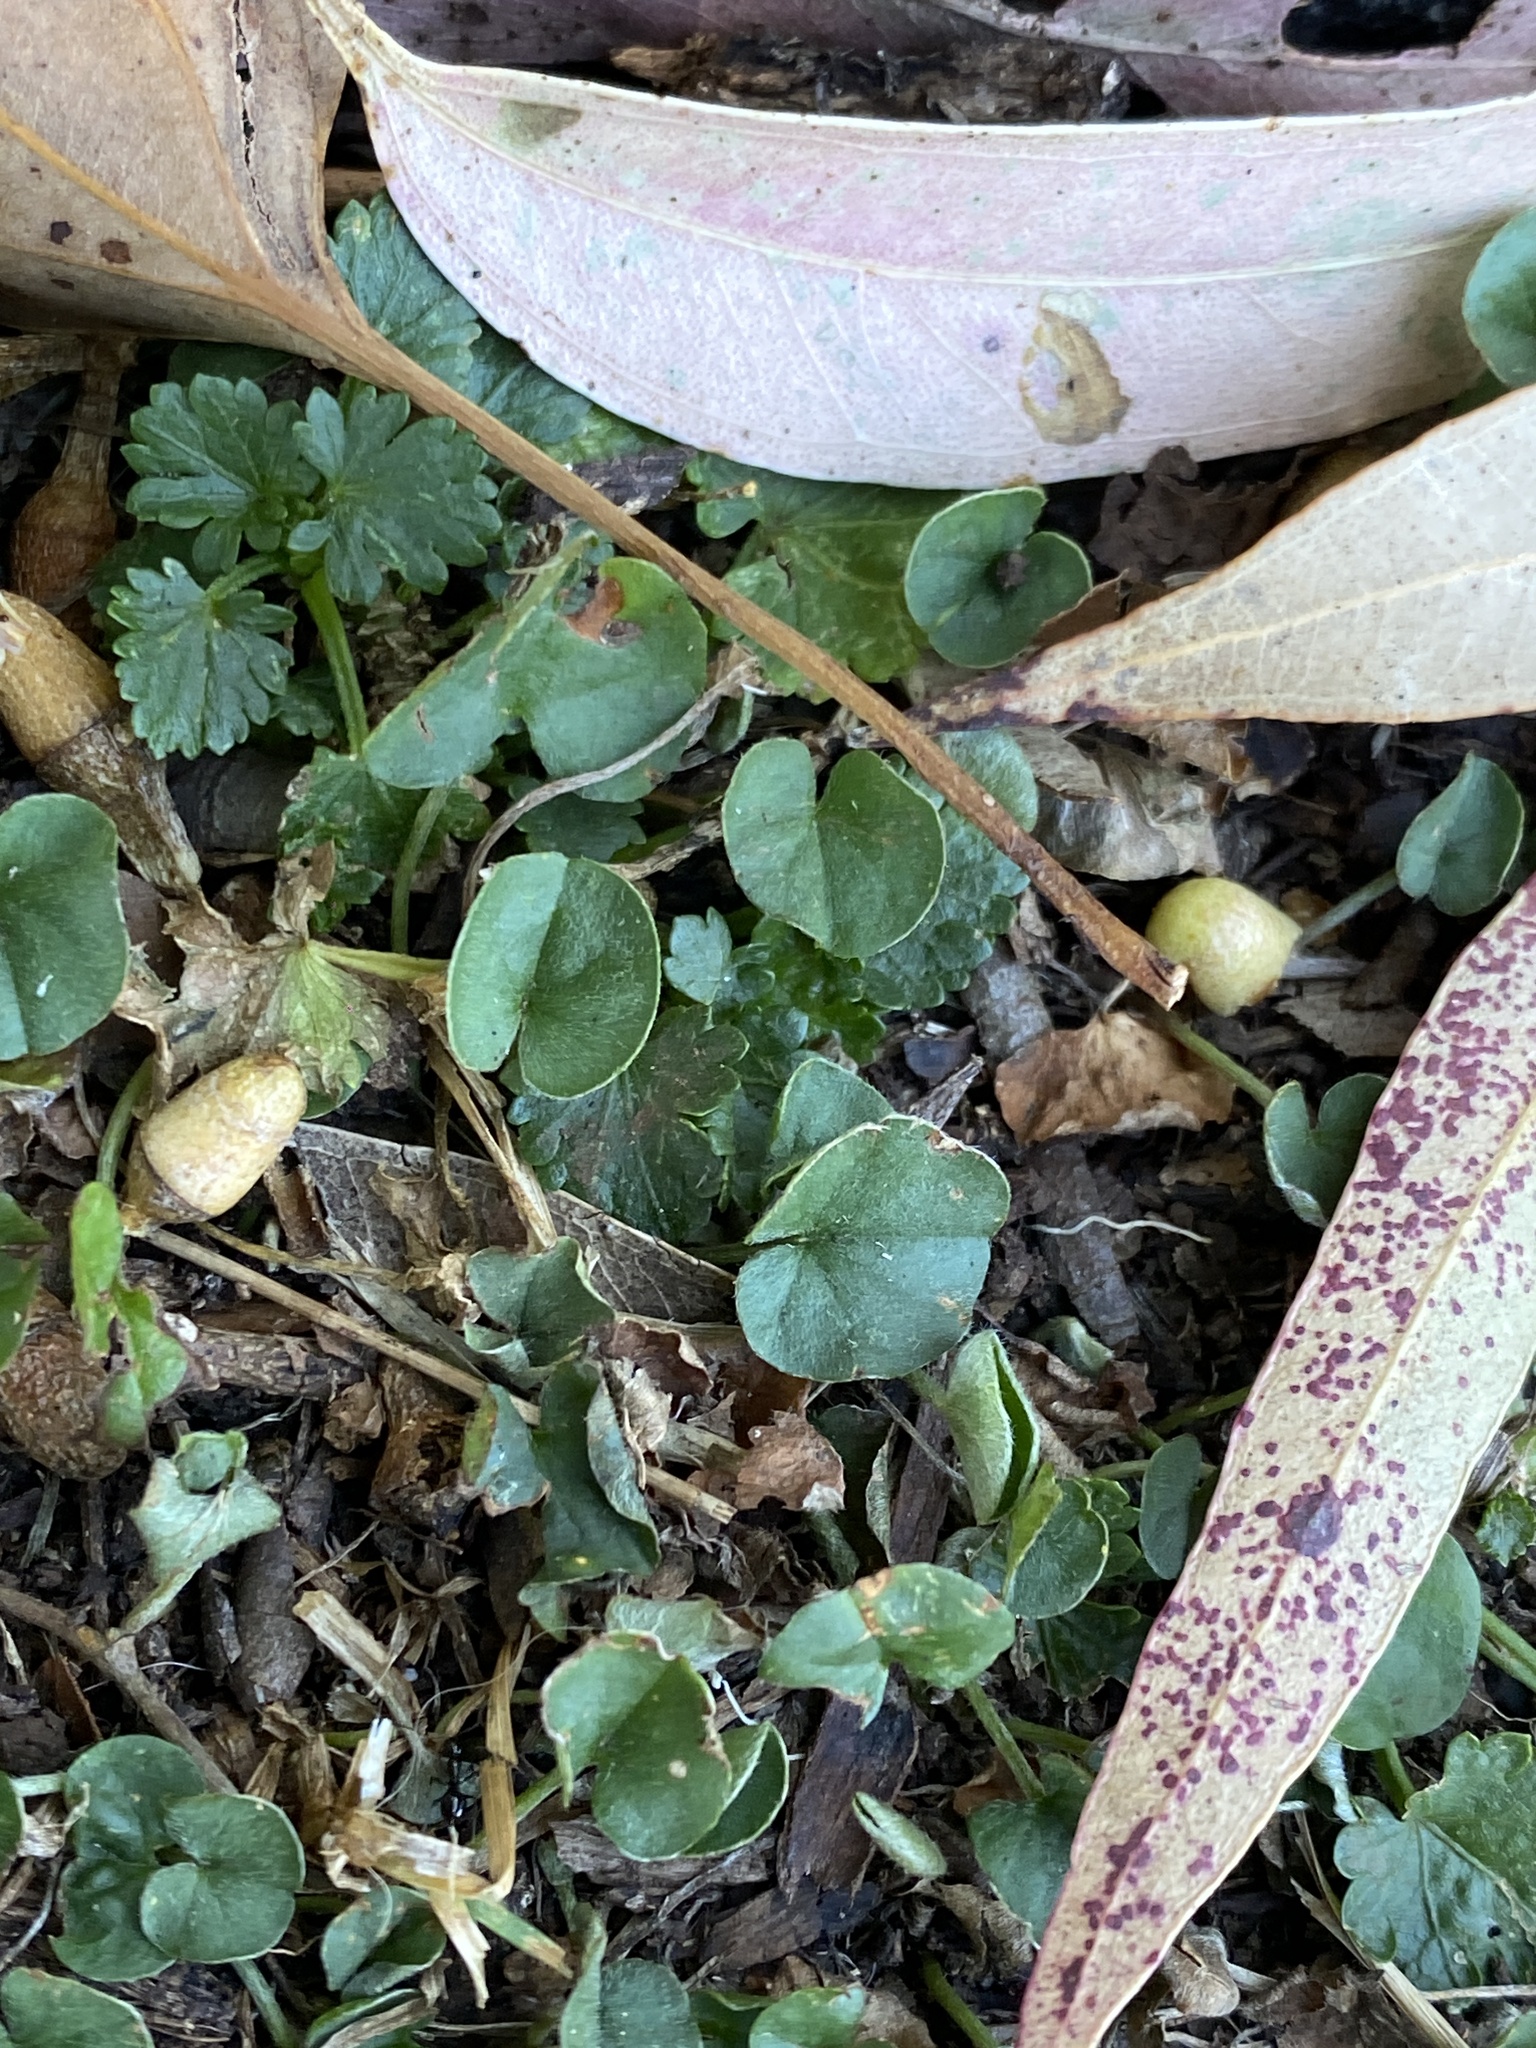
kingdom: Plantae
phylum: Tracheophyta
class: Magnoliopsida
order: Solanales
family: Convolvulaceae
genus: Dichondra
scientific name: Dichondra repens
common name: Kidneyweed
